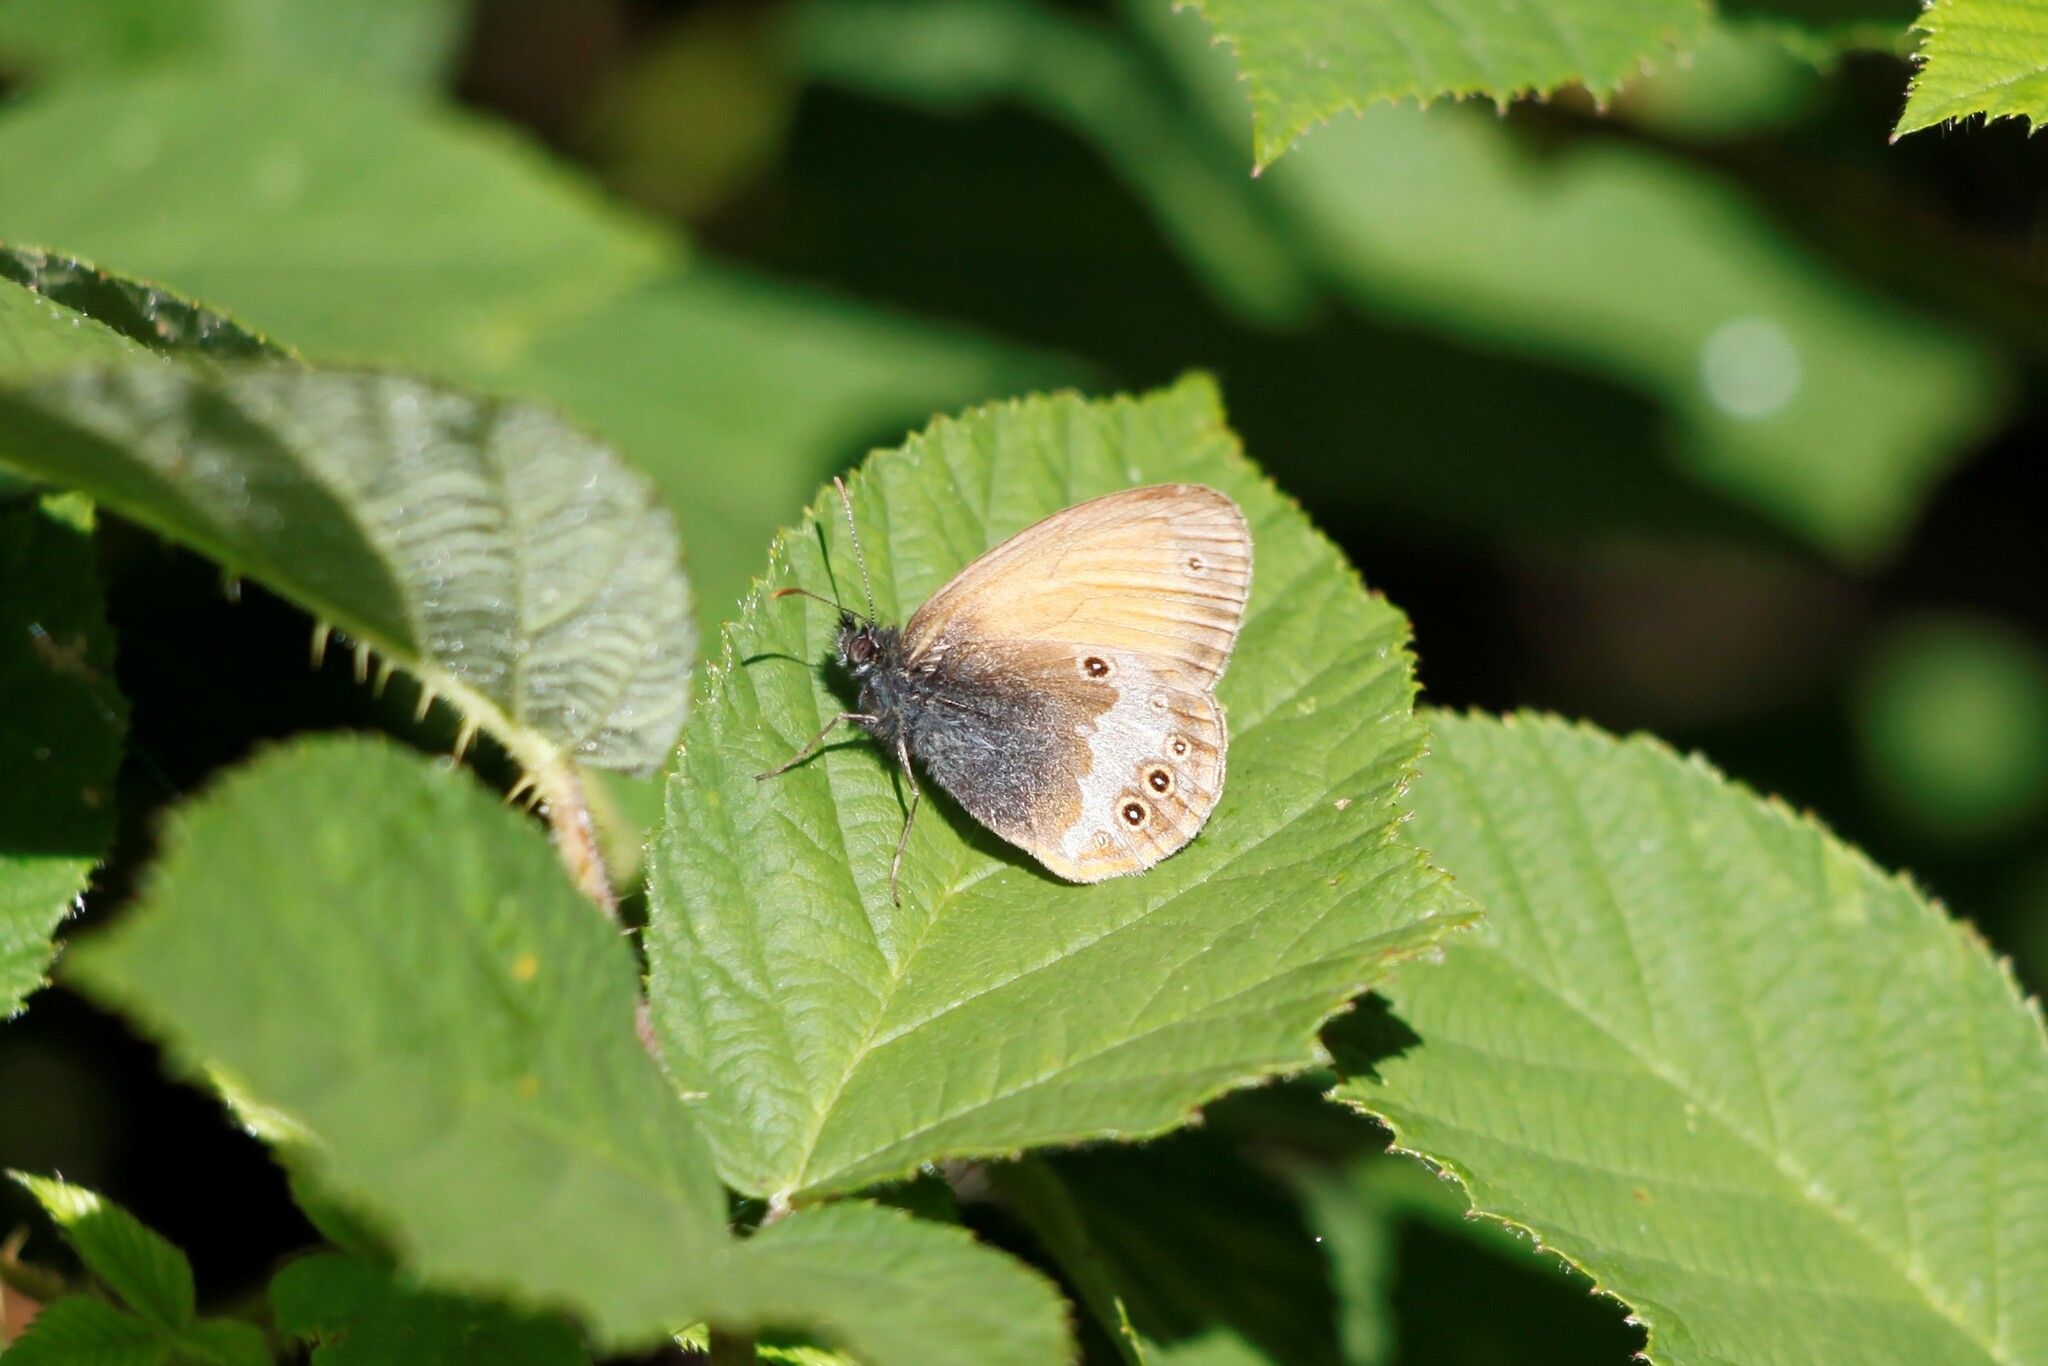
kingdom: Animalia
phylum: Arthropoda
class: Insecta
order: Lepidoptera
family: Nymphalidae
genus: Coenonympha
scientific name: Coenonympha arcania
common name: Pearly heath
